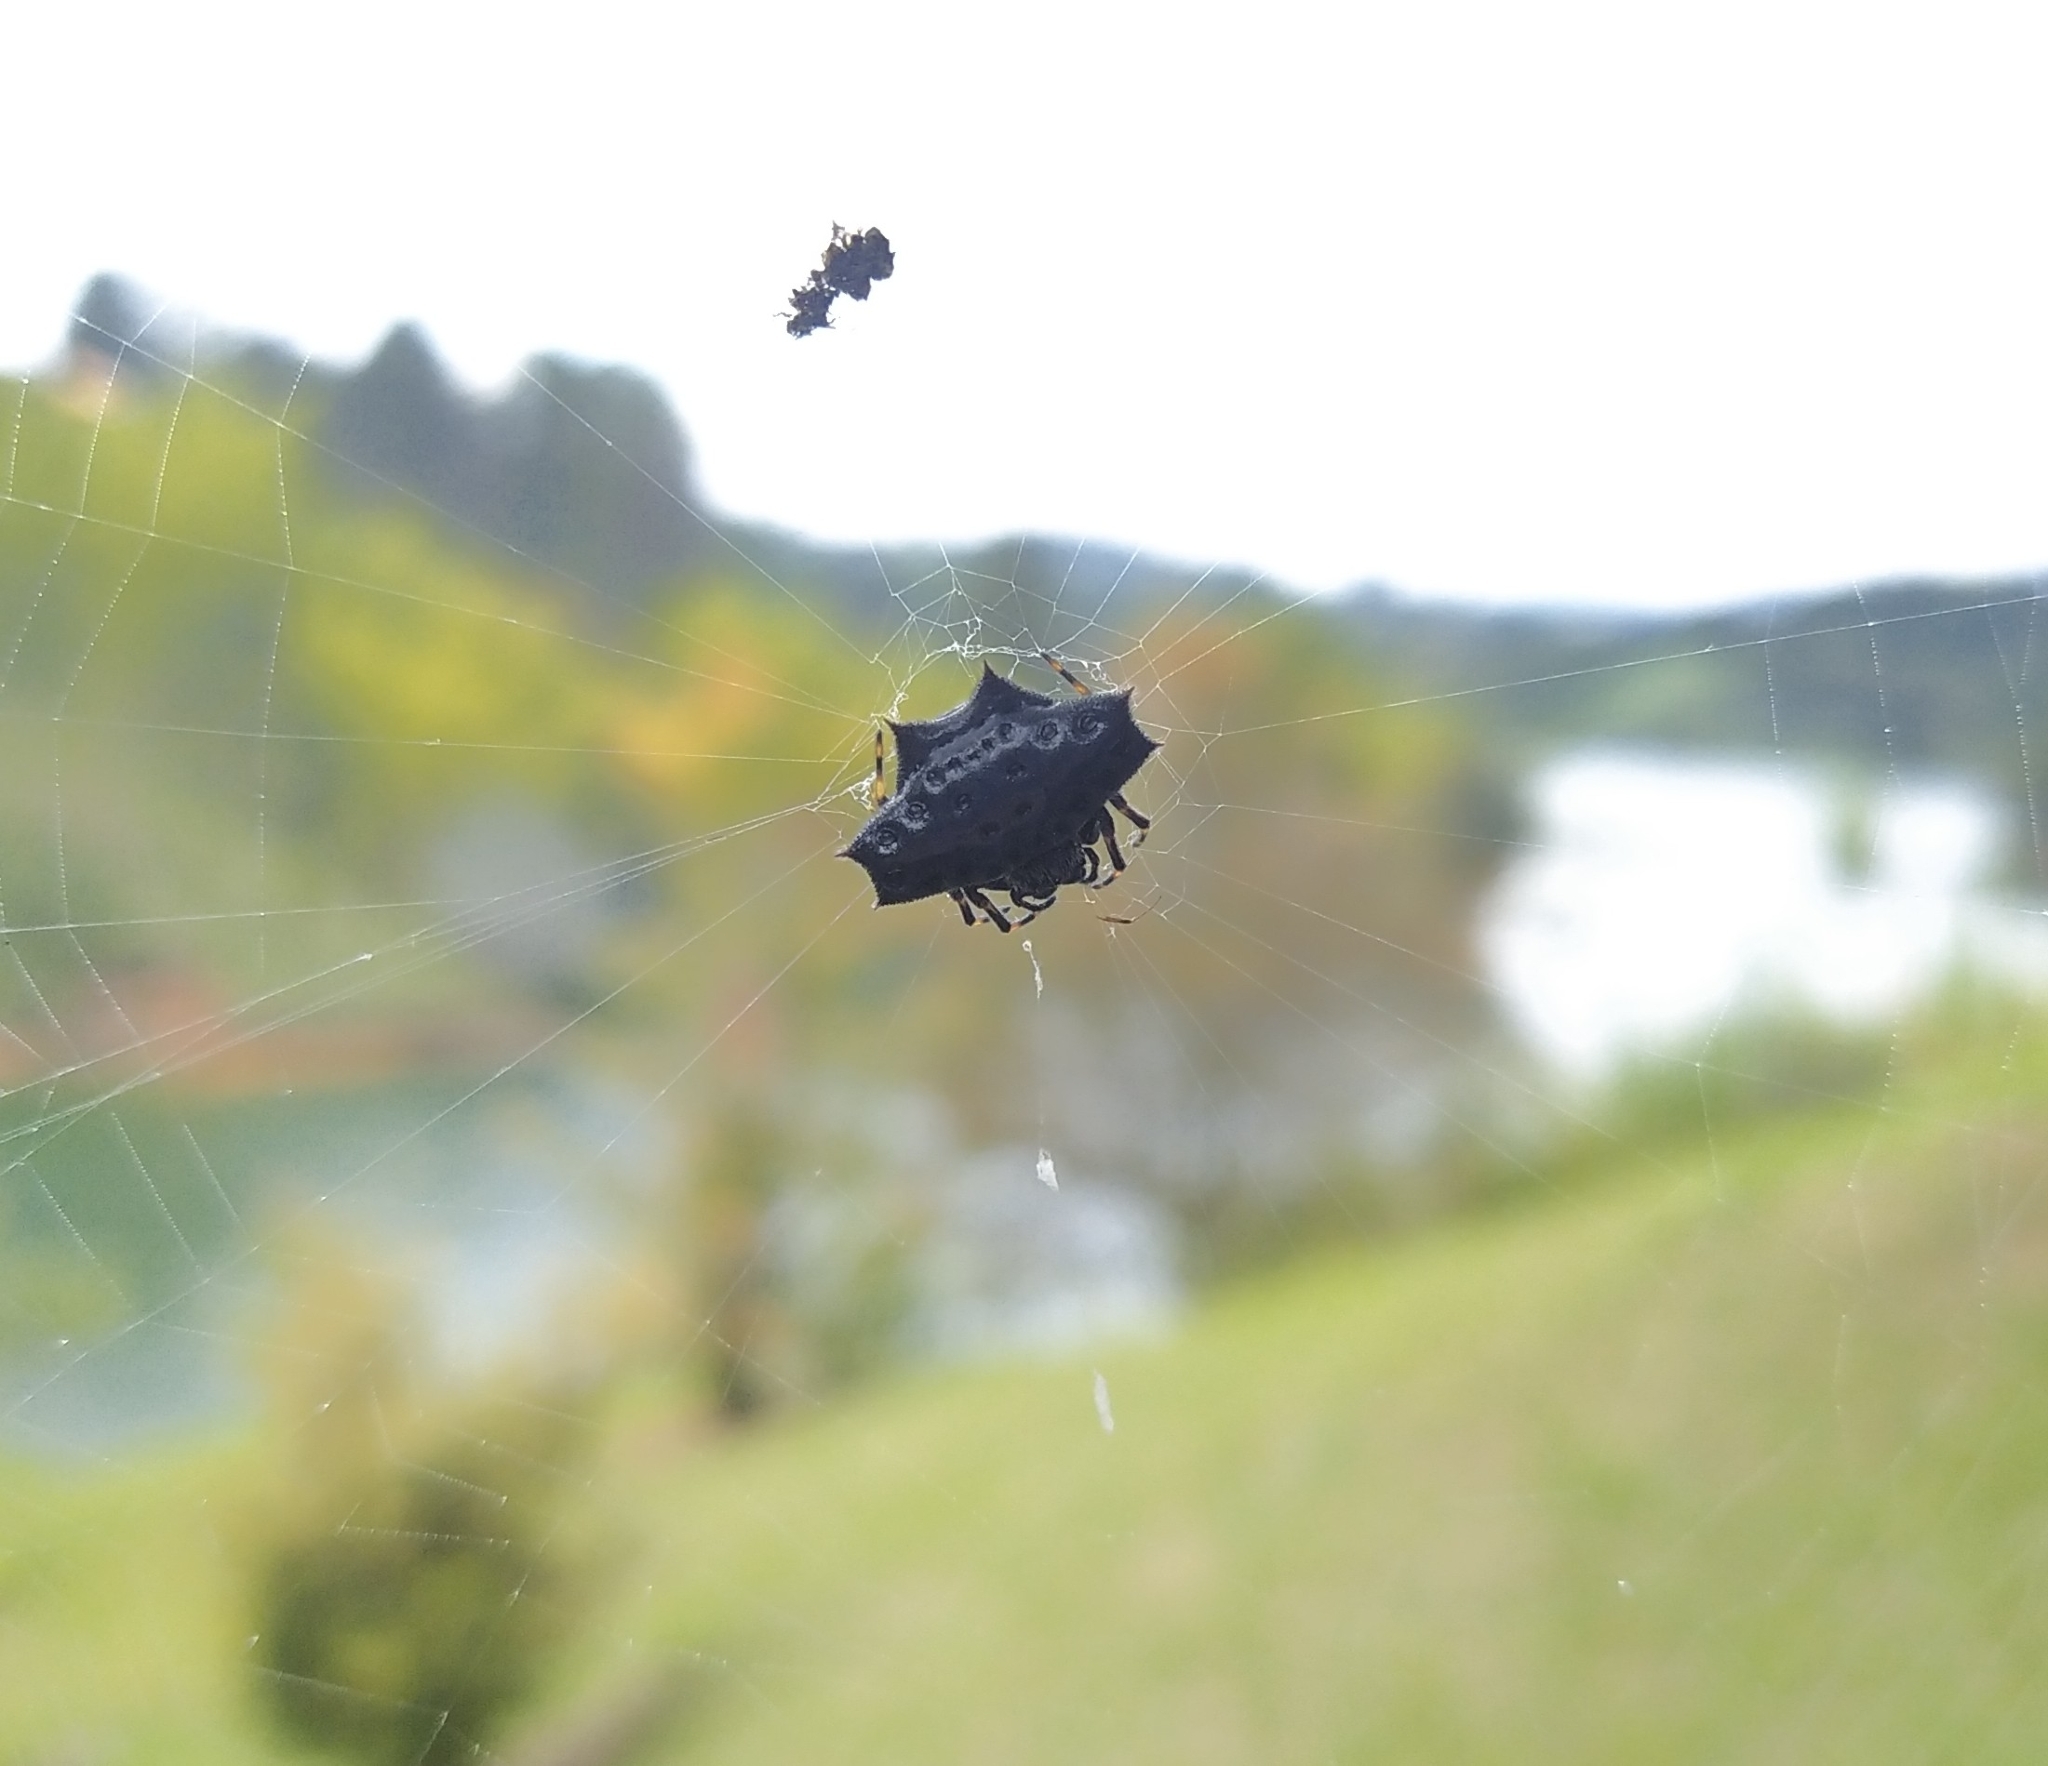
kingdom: Animalia
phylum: Arthropoda
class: Arachnida
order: Araneae
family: Araneidae
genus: Gasteracantha
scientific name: Gasteracantha cancriformis
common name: Orb weavers
